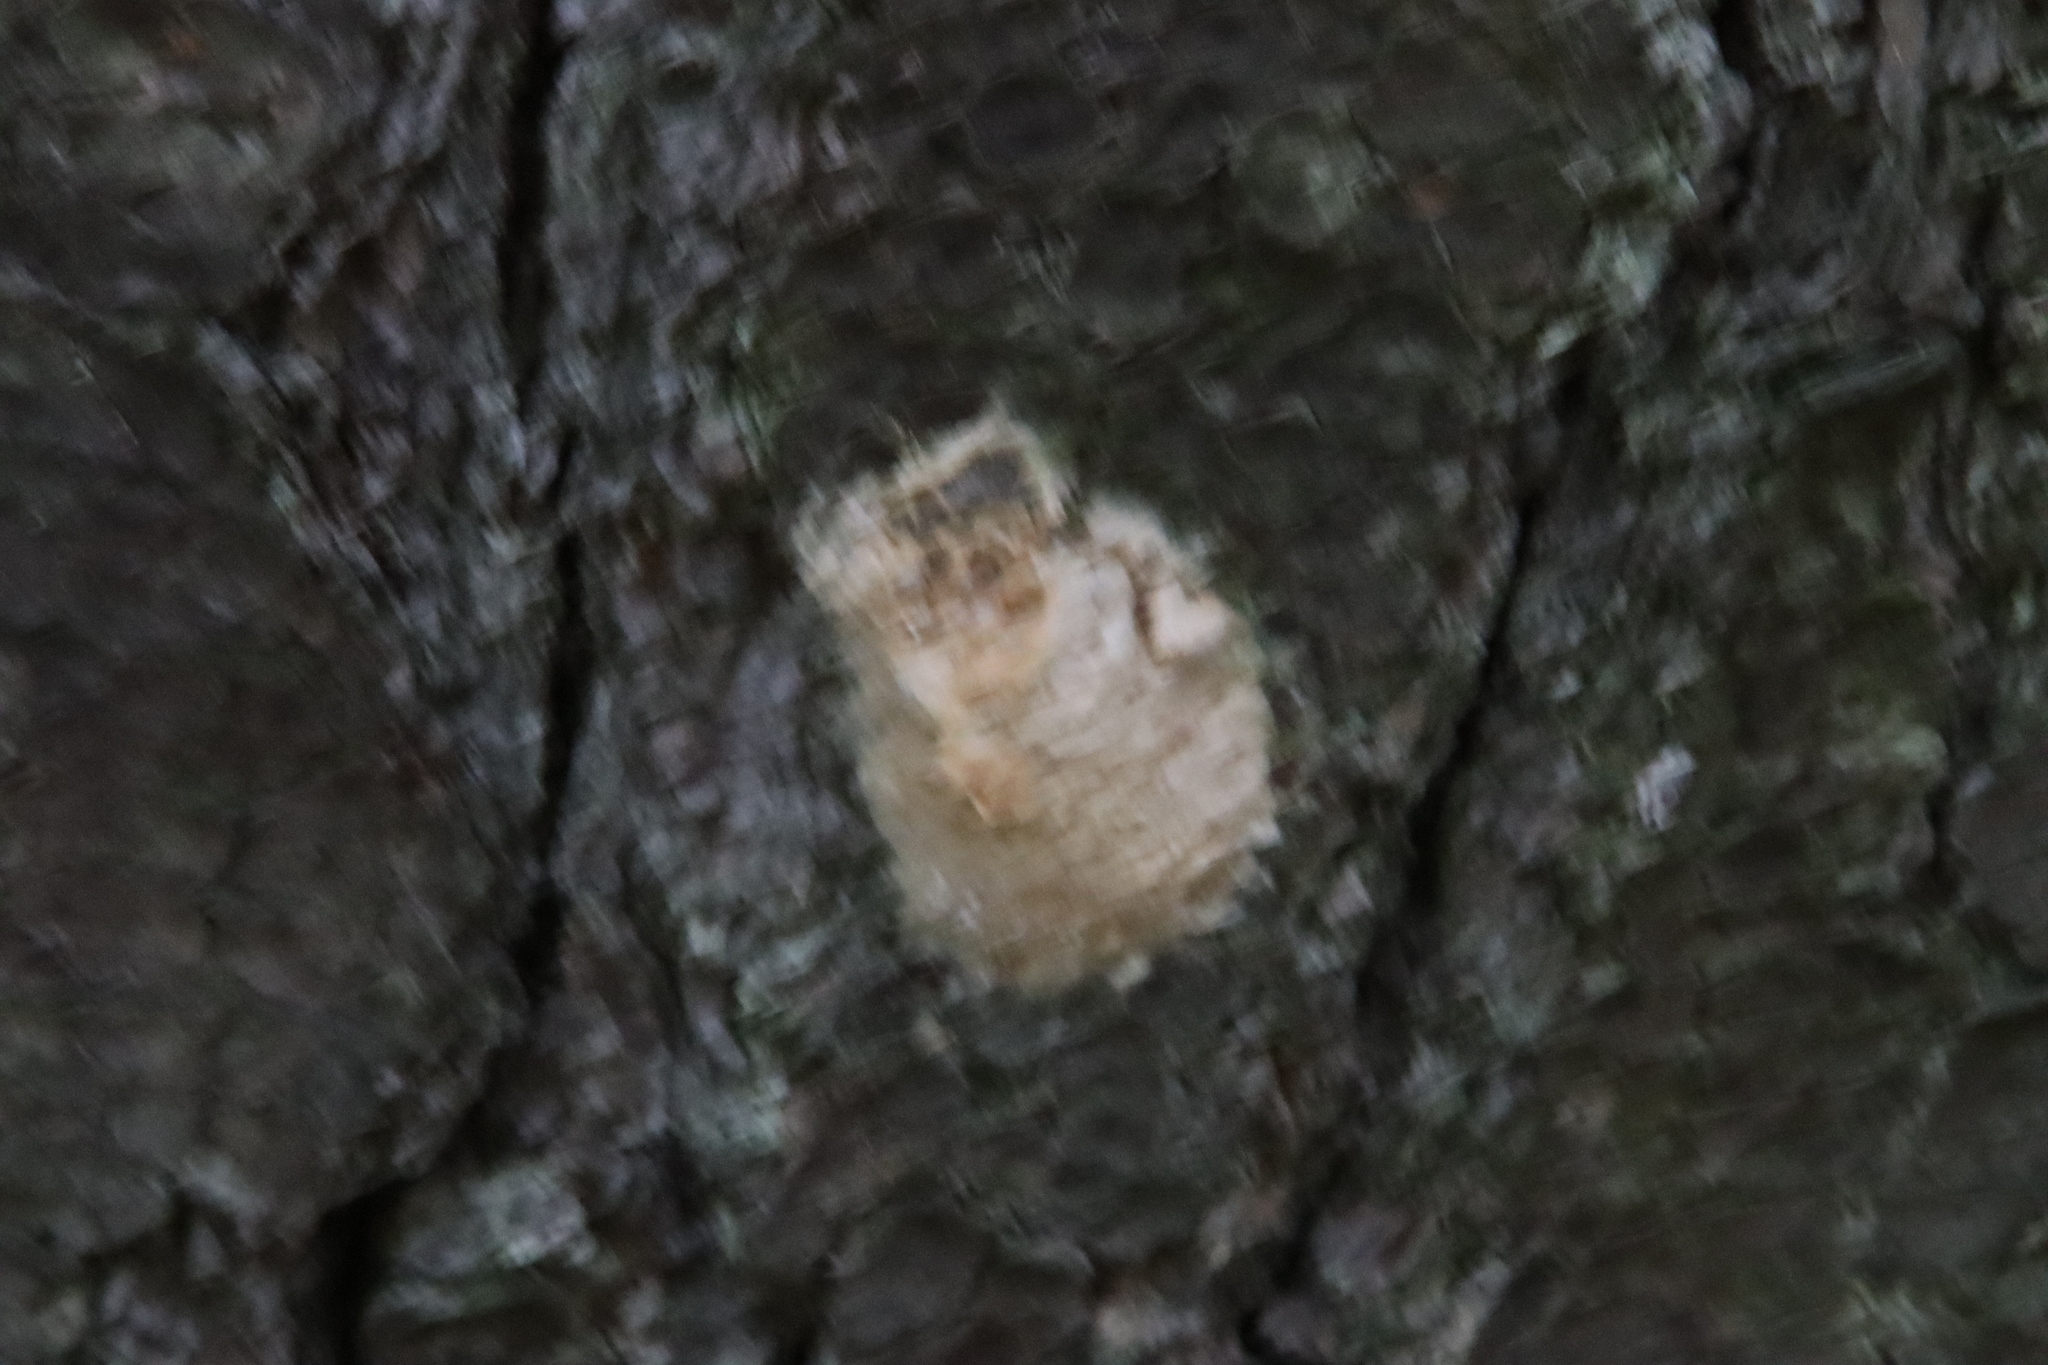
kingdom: Animalia
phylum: Arthropoda
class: Insecta
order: Lepidoptera
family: Erebidae
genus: Lymantria
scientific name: Lymantria dispar
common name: Gypsy moth
